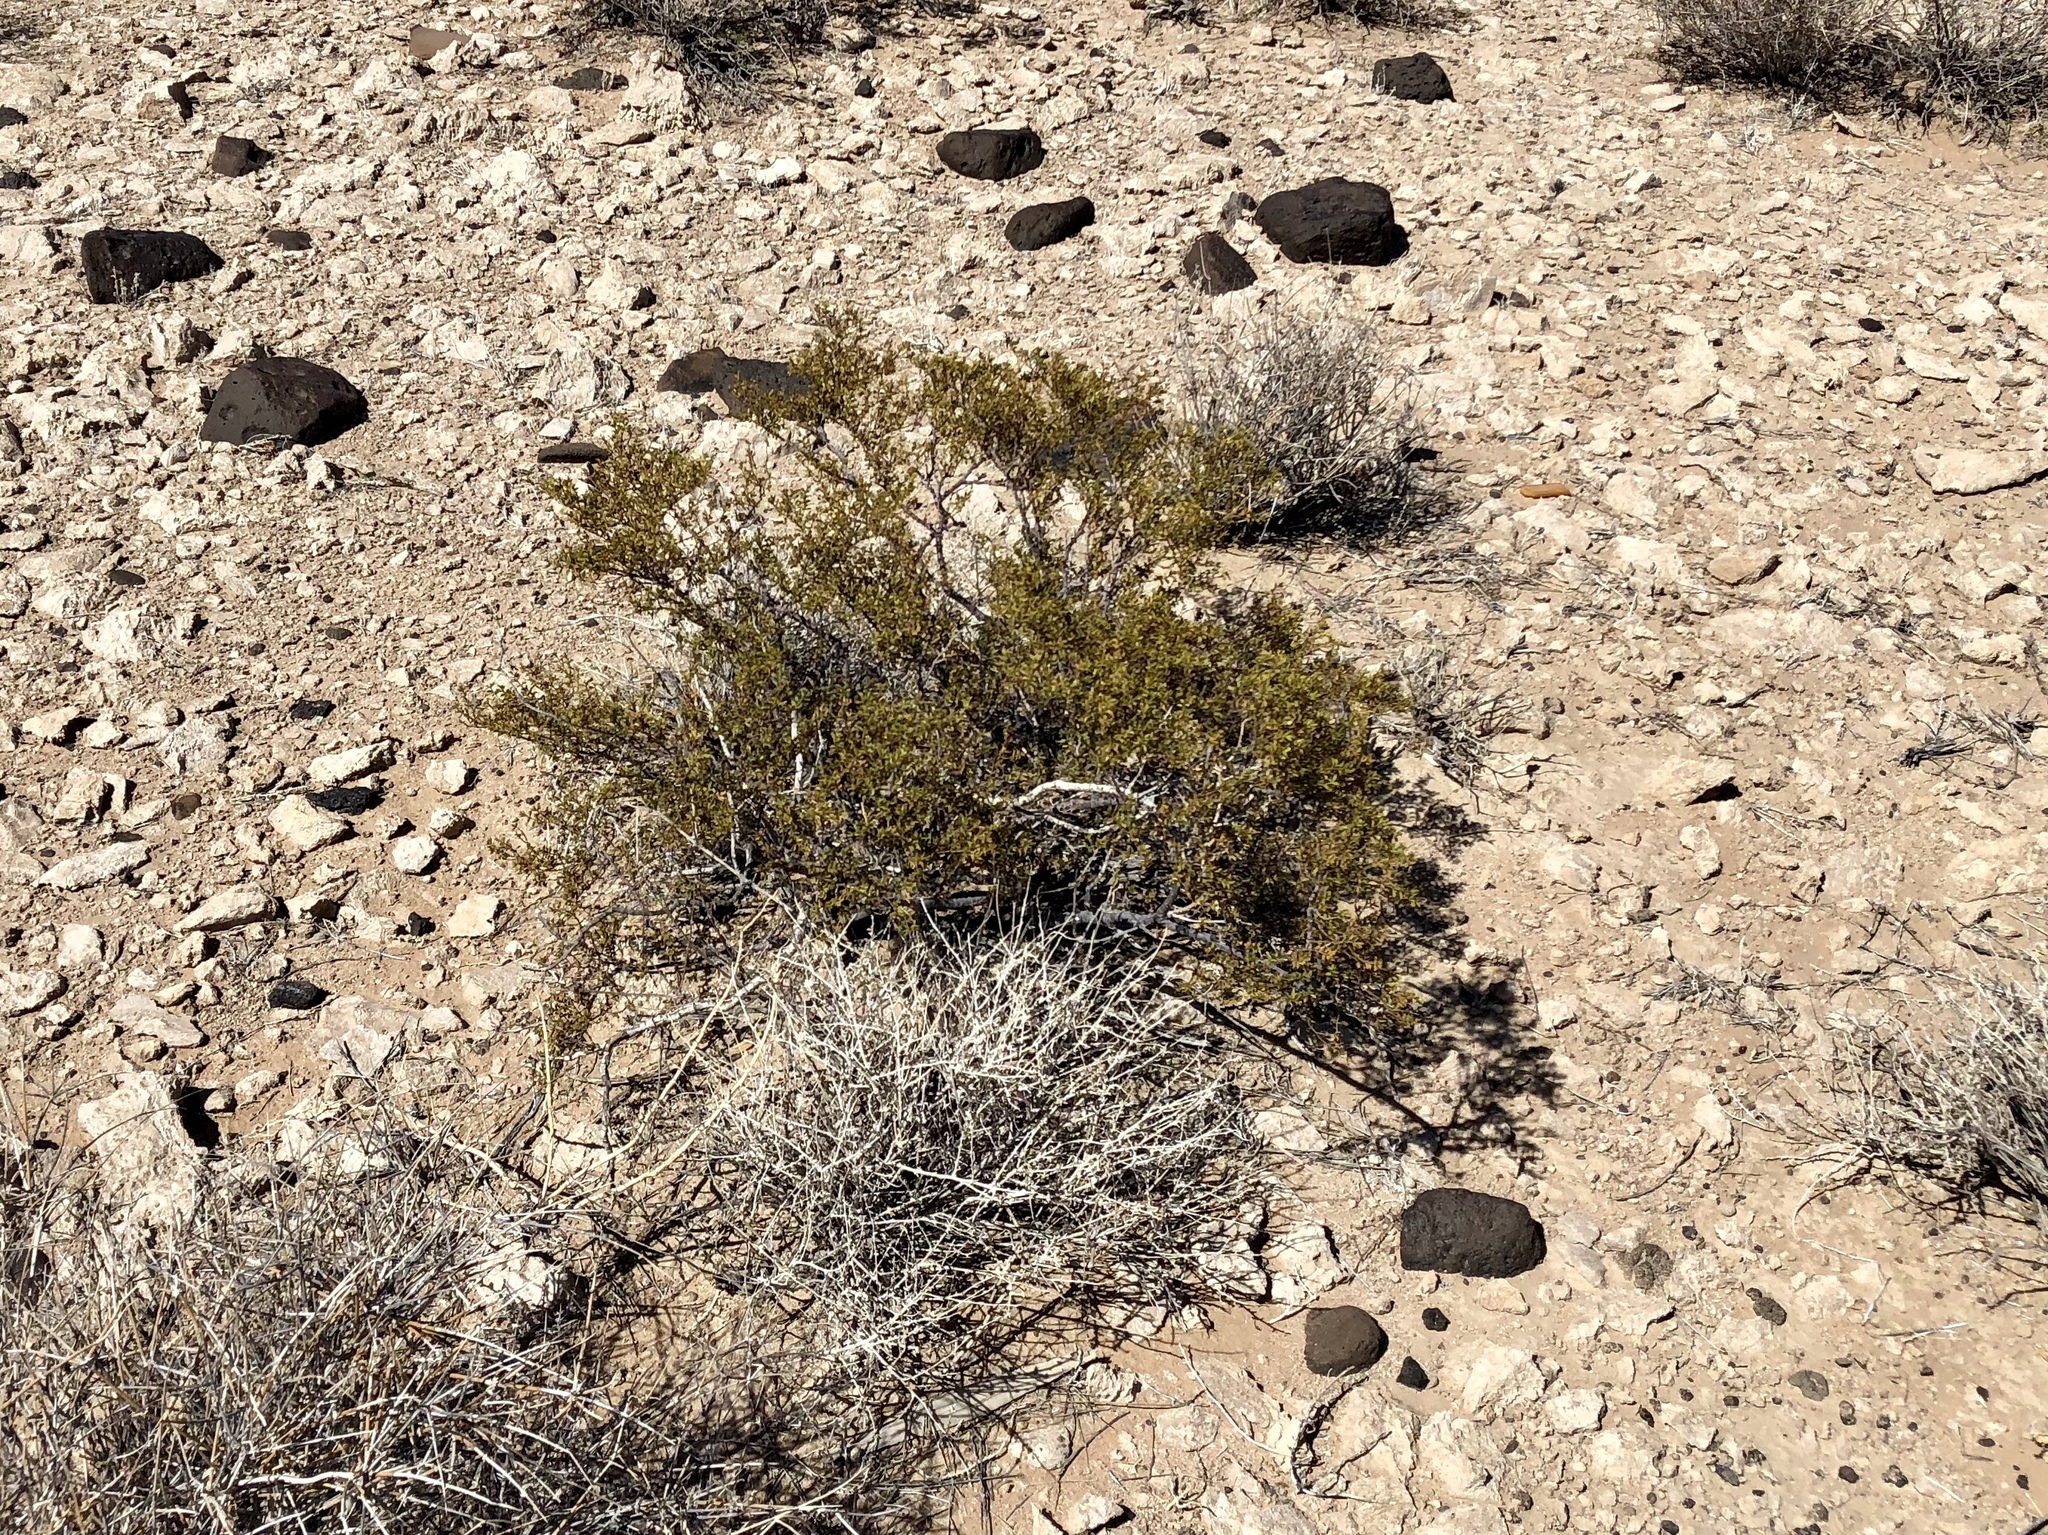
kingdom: Plantae
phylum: Tracheophyta
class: Magnoliopsida
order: Zygophyllales
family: Zygophyllaceae
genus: Larrea
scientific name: Larrea tridentata
